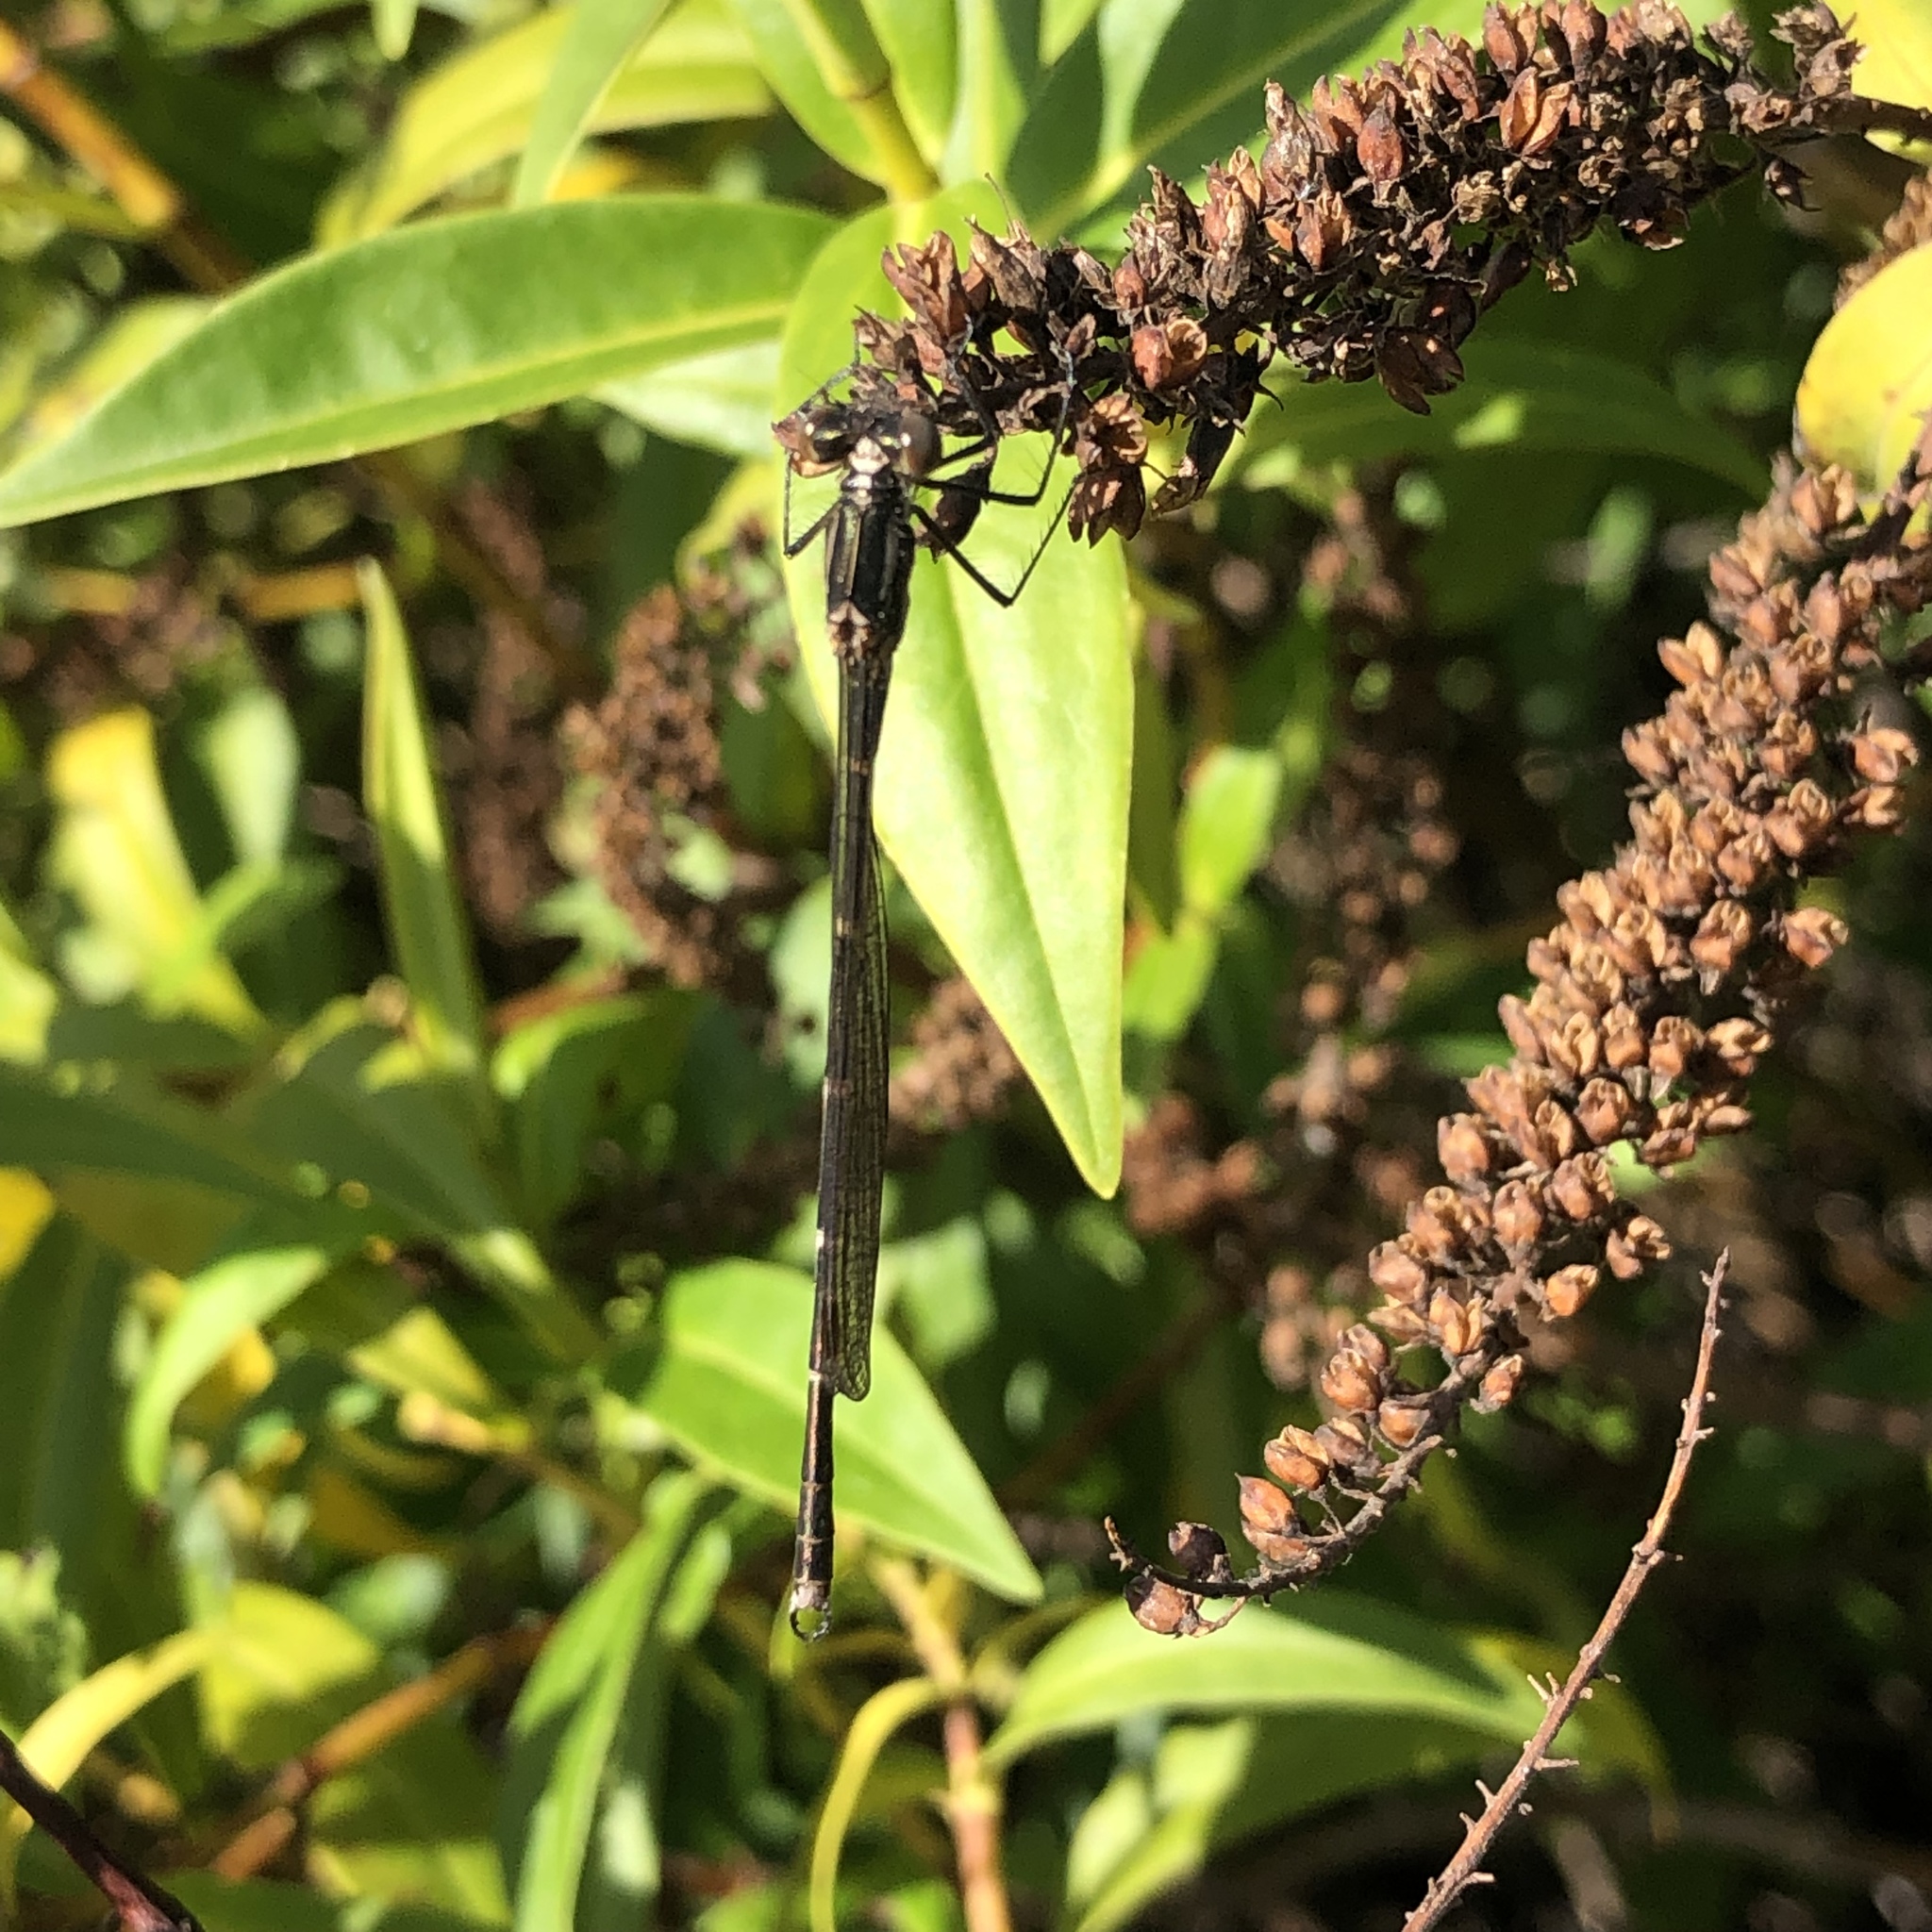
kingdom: Animalia
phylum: Arthropoda
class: Insecta
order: Odonata
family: Lestidae
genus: Austrolestes
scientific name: Austrolestes colensonis
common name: Blue damselfly
